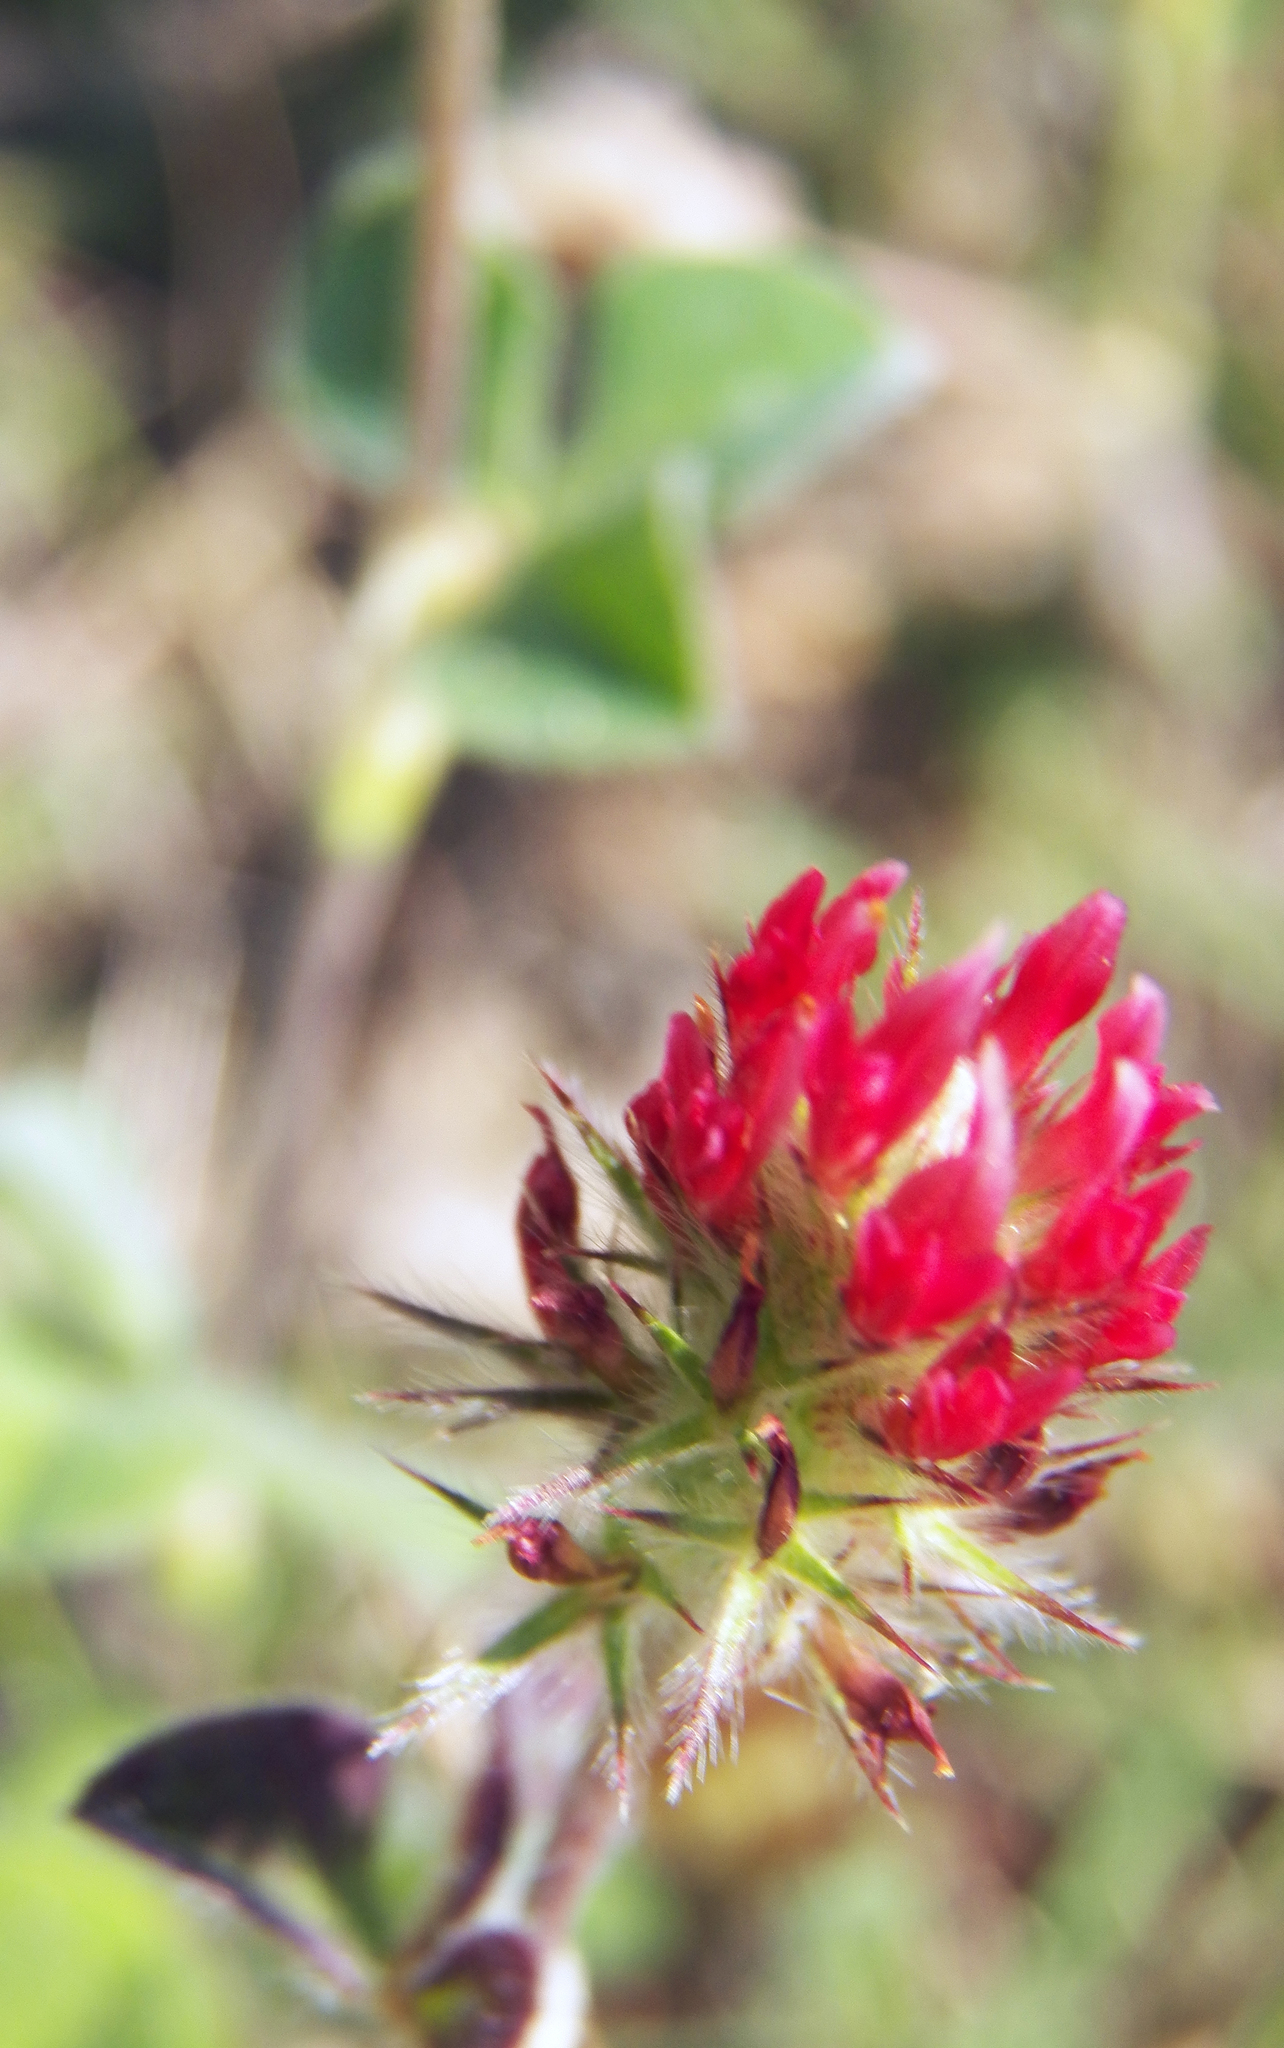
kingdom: Plantae
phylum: Tracheophyta
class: Magnoliopsida
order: Fabales
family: Fabaceae
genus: Trifolium
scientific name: Trifolium incarnatum
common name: Crimson clover
